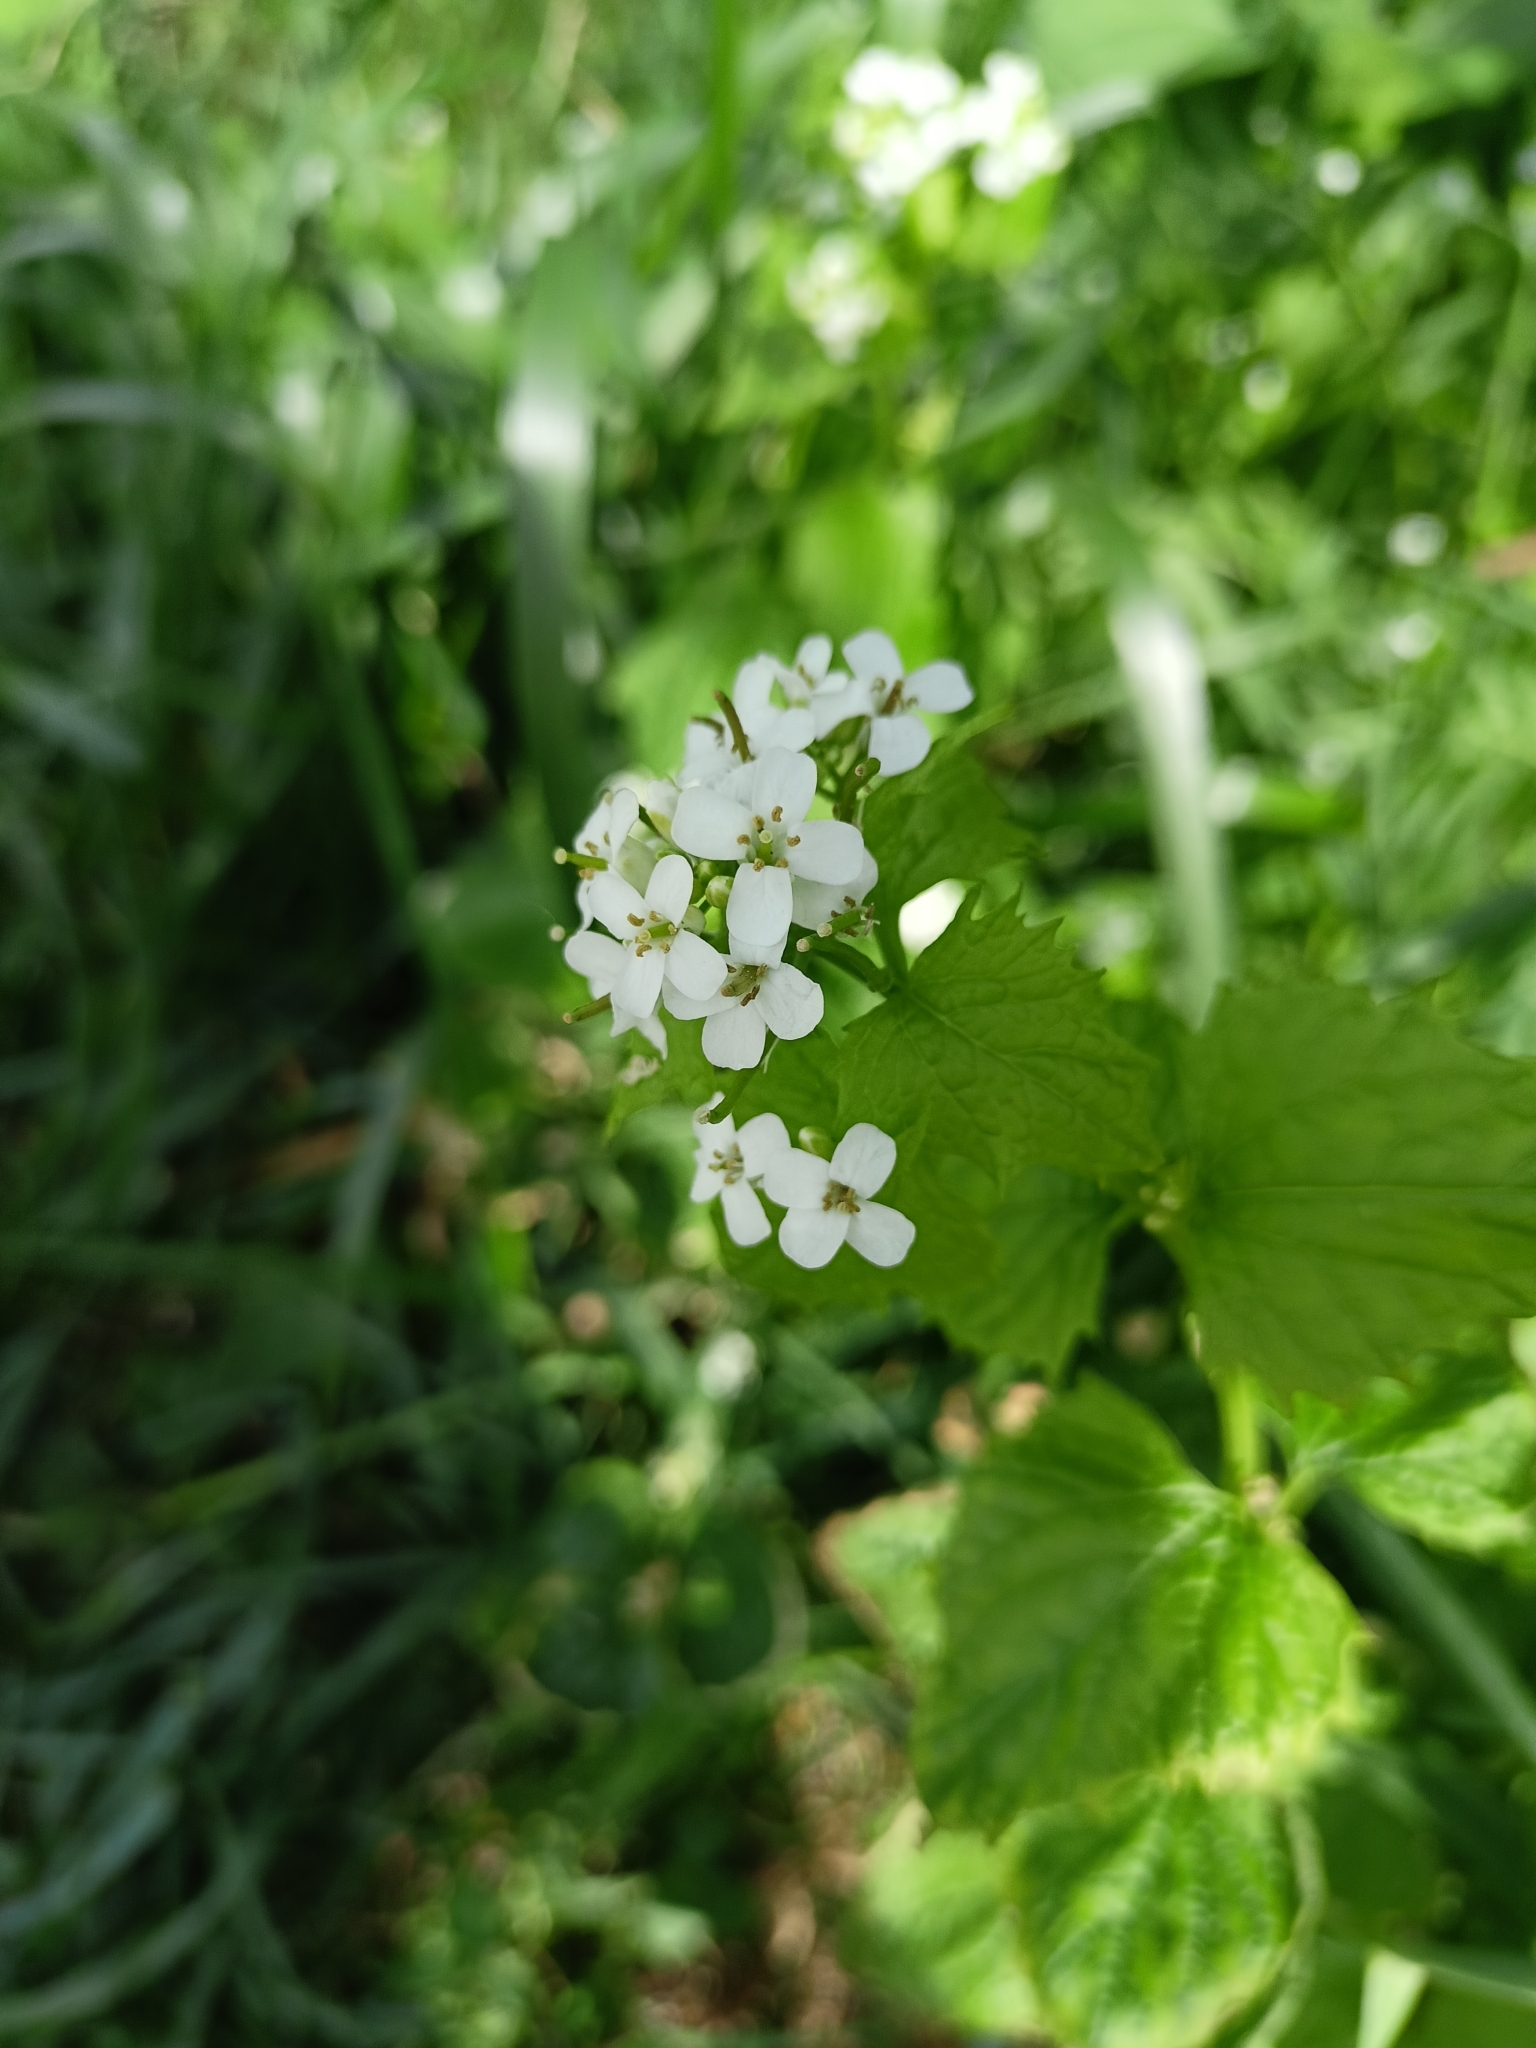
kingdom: Plantae
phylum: Tracheophyta
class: Magnoliopsida
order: Brassicales
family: Brassicaceae
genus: Alliaria
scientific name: Alliaria petiolata
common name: Garlic mustard
